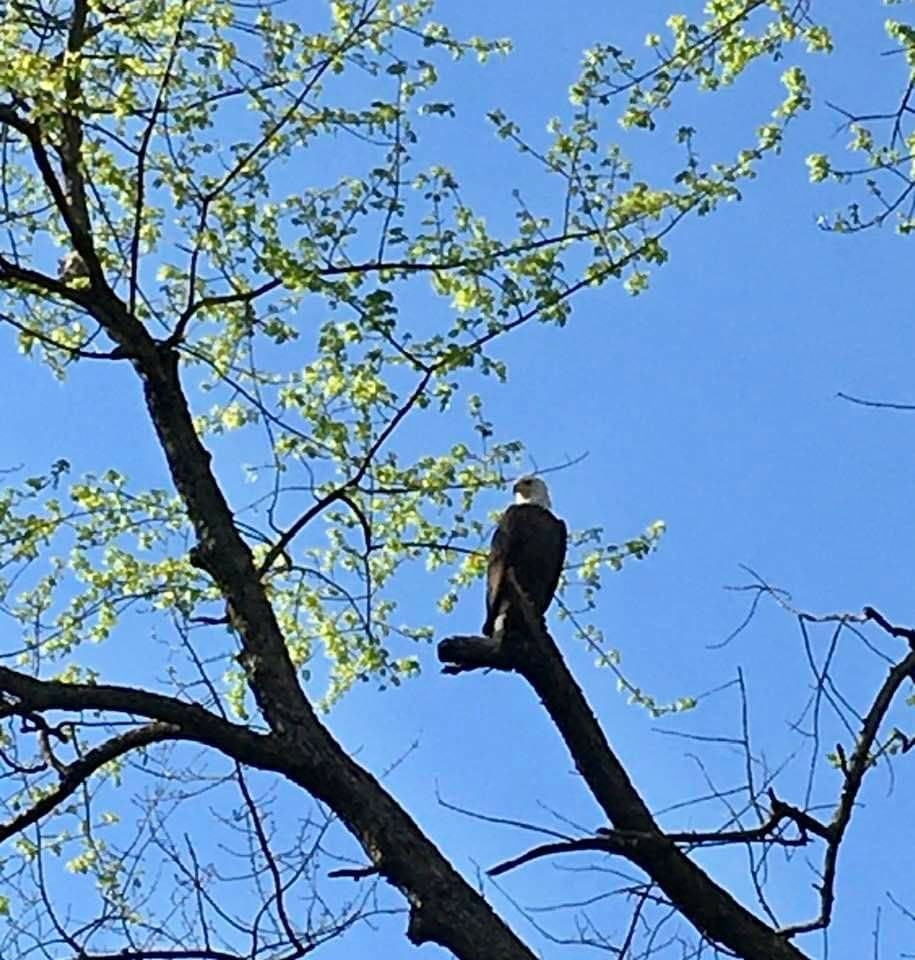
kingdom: Animalia
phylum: Chordata
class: Aves
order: Accipitriformes
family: Accipitridae
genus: Haliaeetus
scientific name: Haliaeetus leucocephalus
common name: Bald eagle
